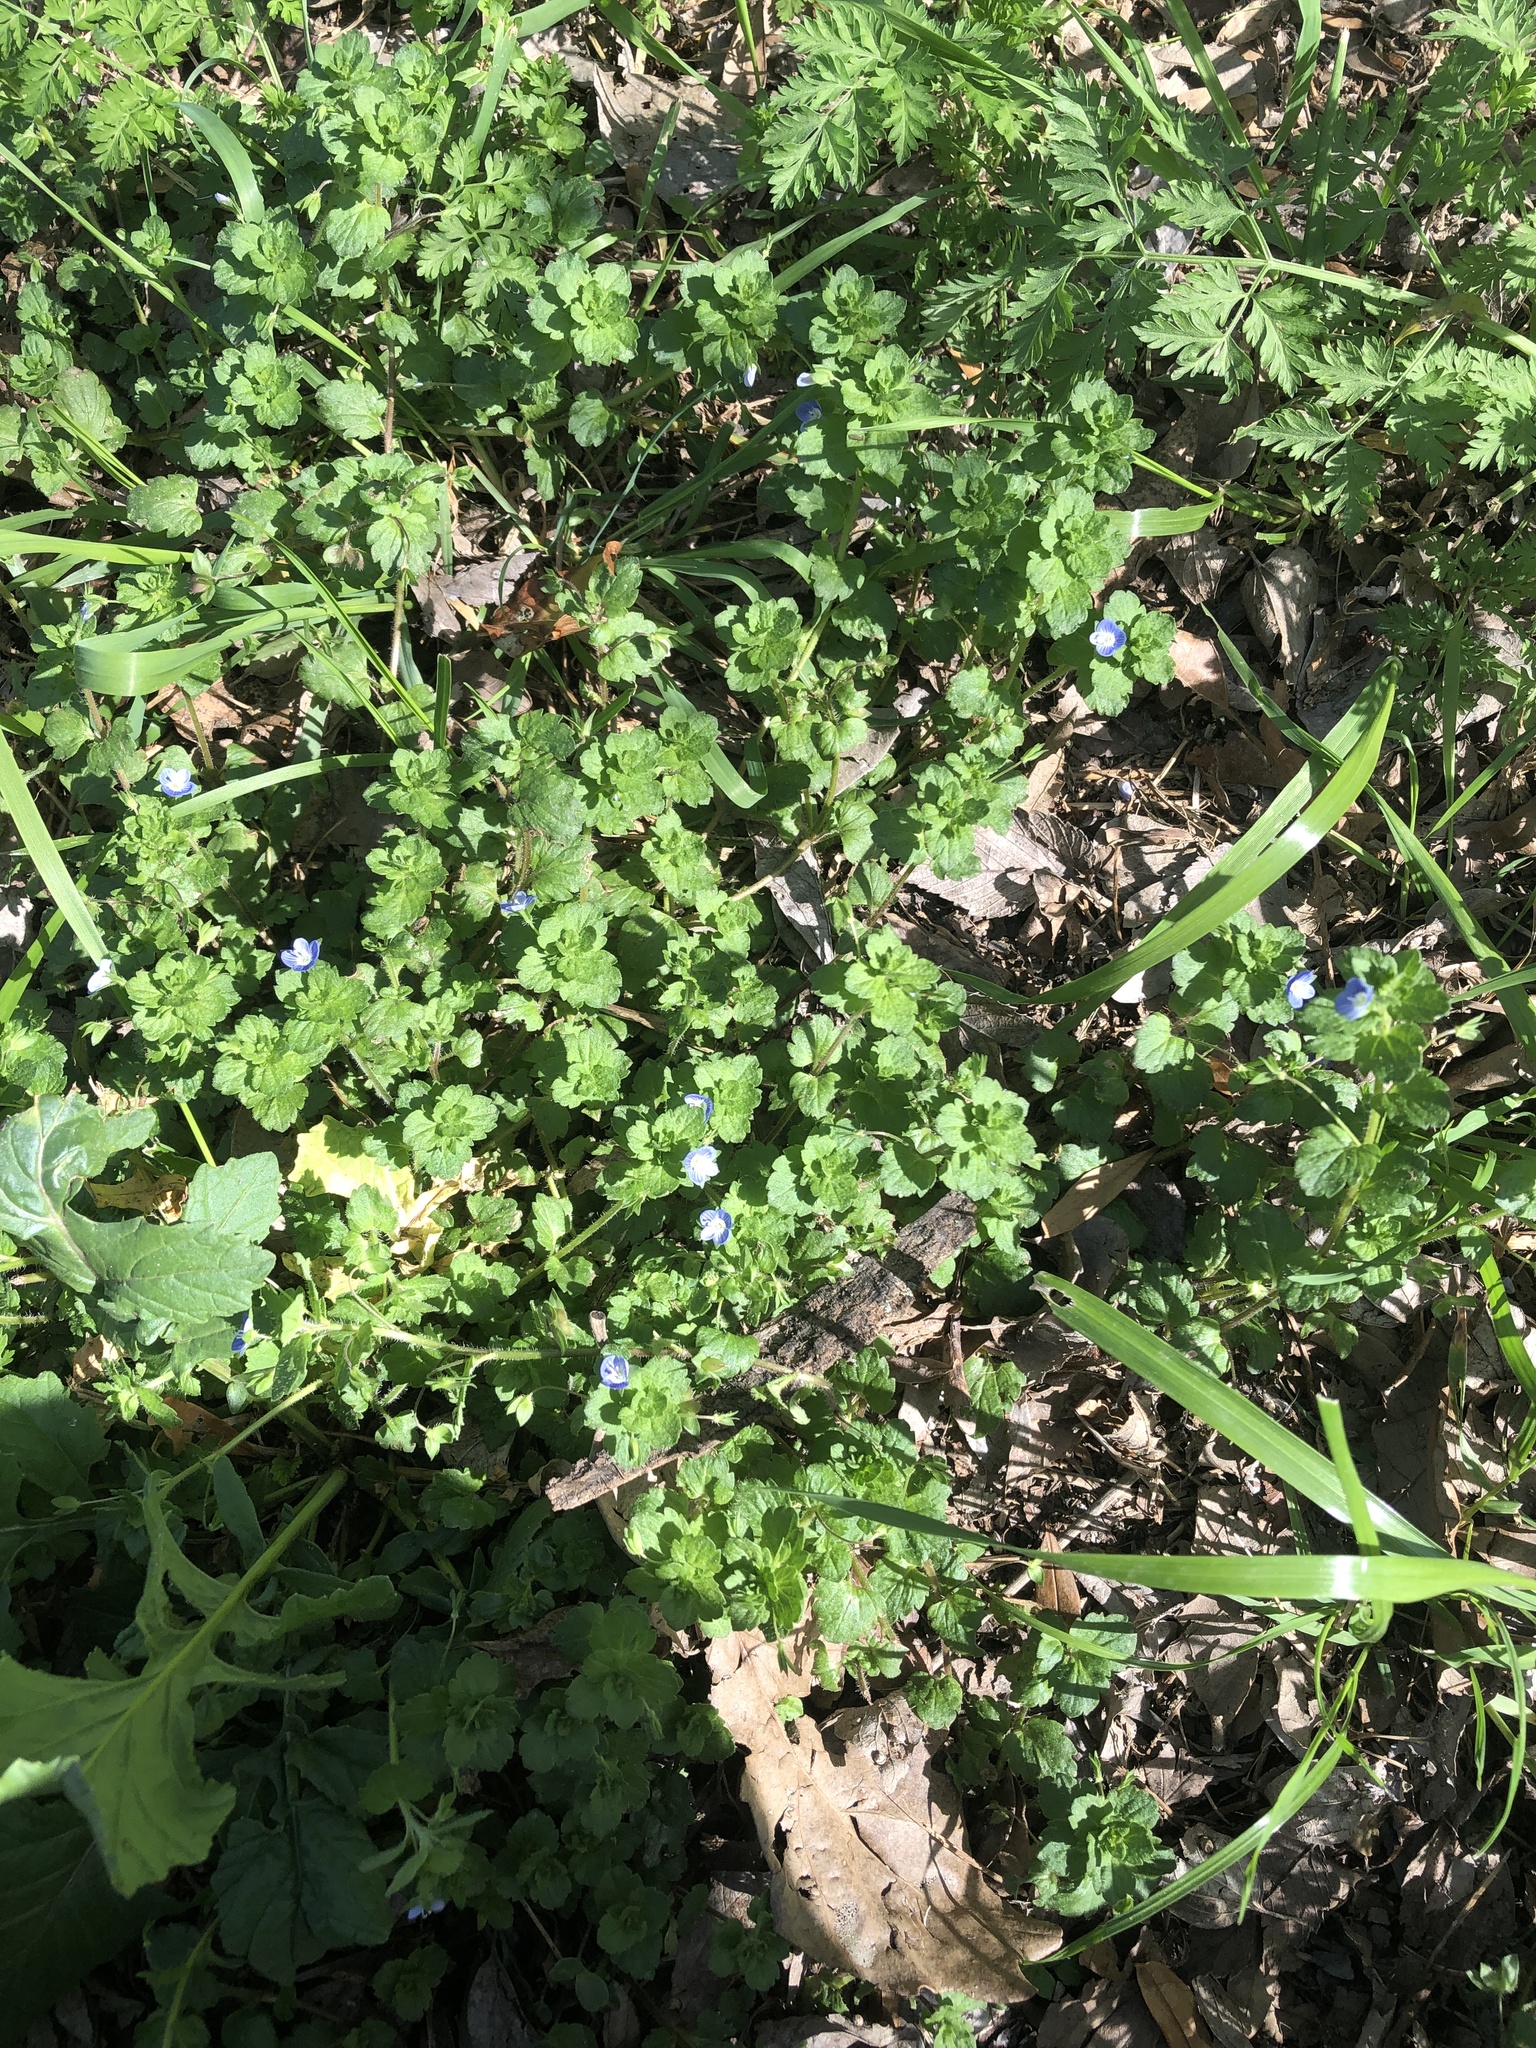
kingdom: Plantae
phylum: Tracheophyta
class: Magnoliopsida
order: Lamiales
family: Plantaginaceae
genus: Veronica
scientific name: Veronica persica
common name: Common field-speedwell
